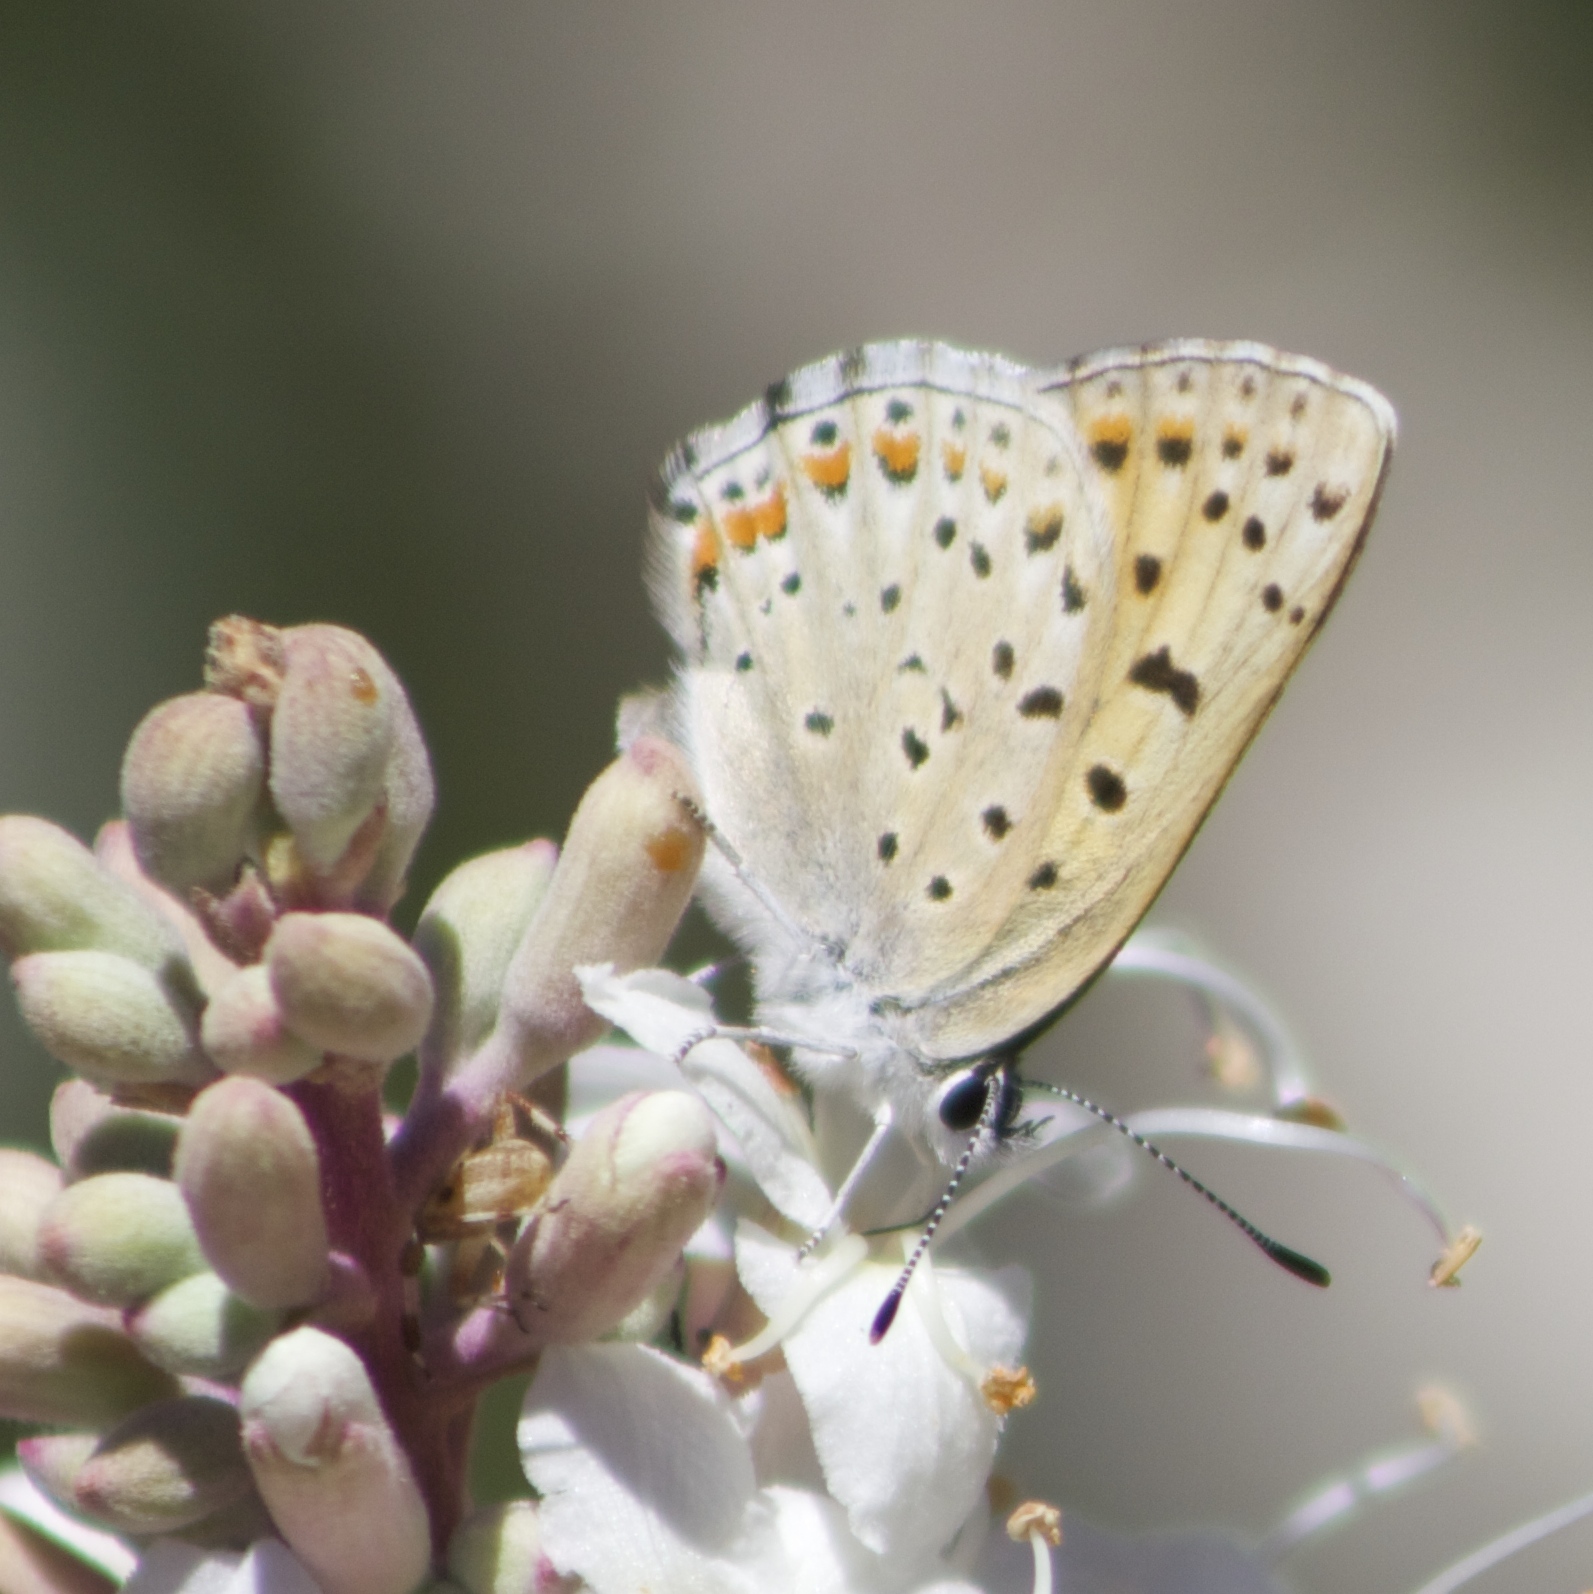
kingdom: Animalia
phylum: Arthropoda
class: Insecta
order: Lepidoptera
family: Lycaenidae
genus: Tharsalea
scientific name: Tharsalea gorgon
